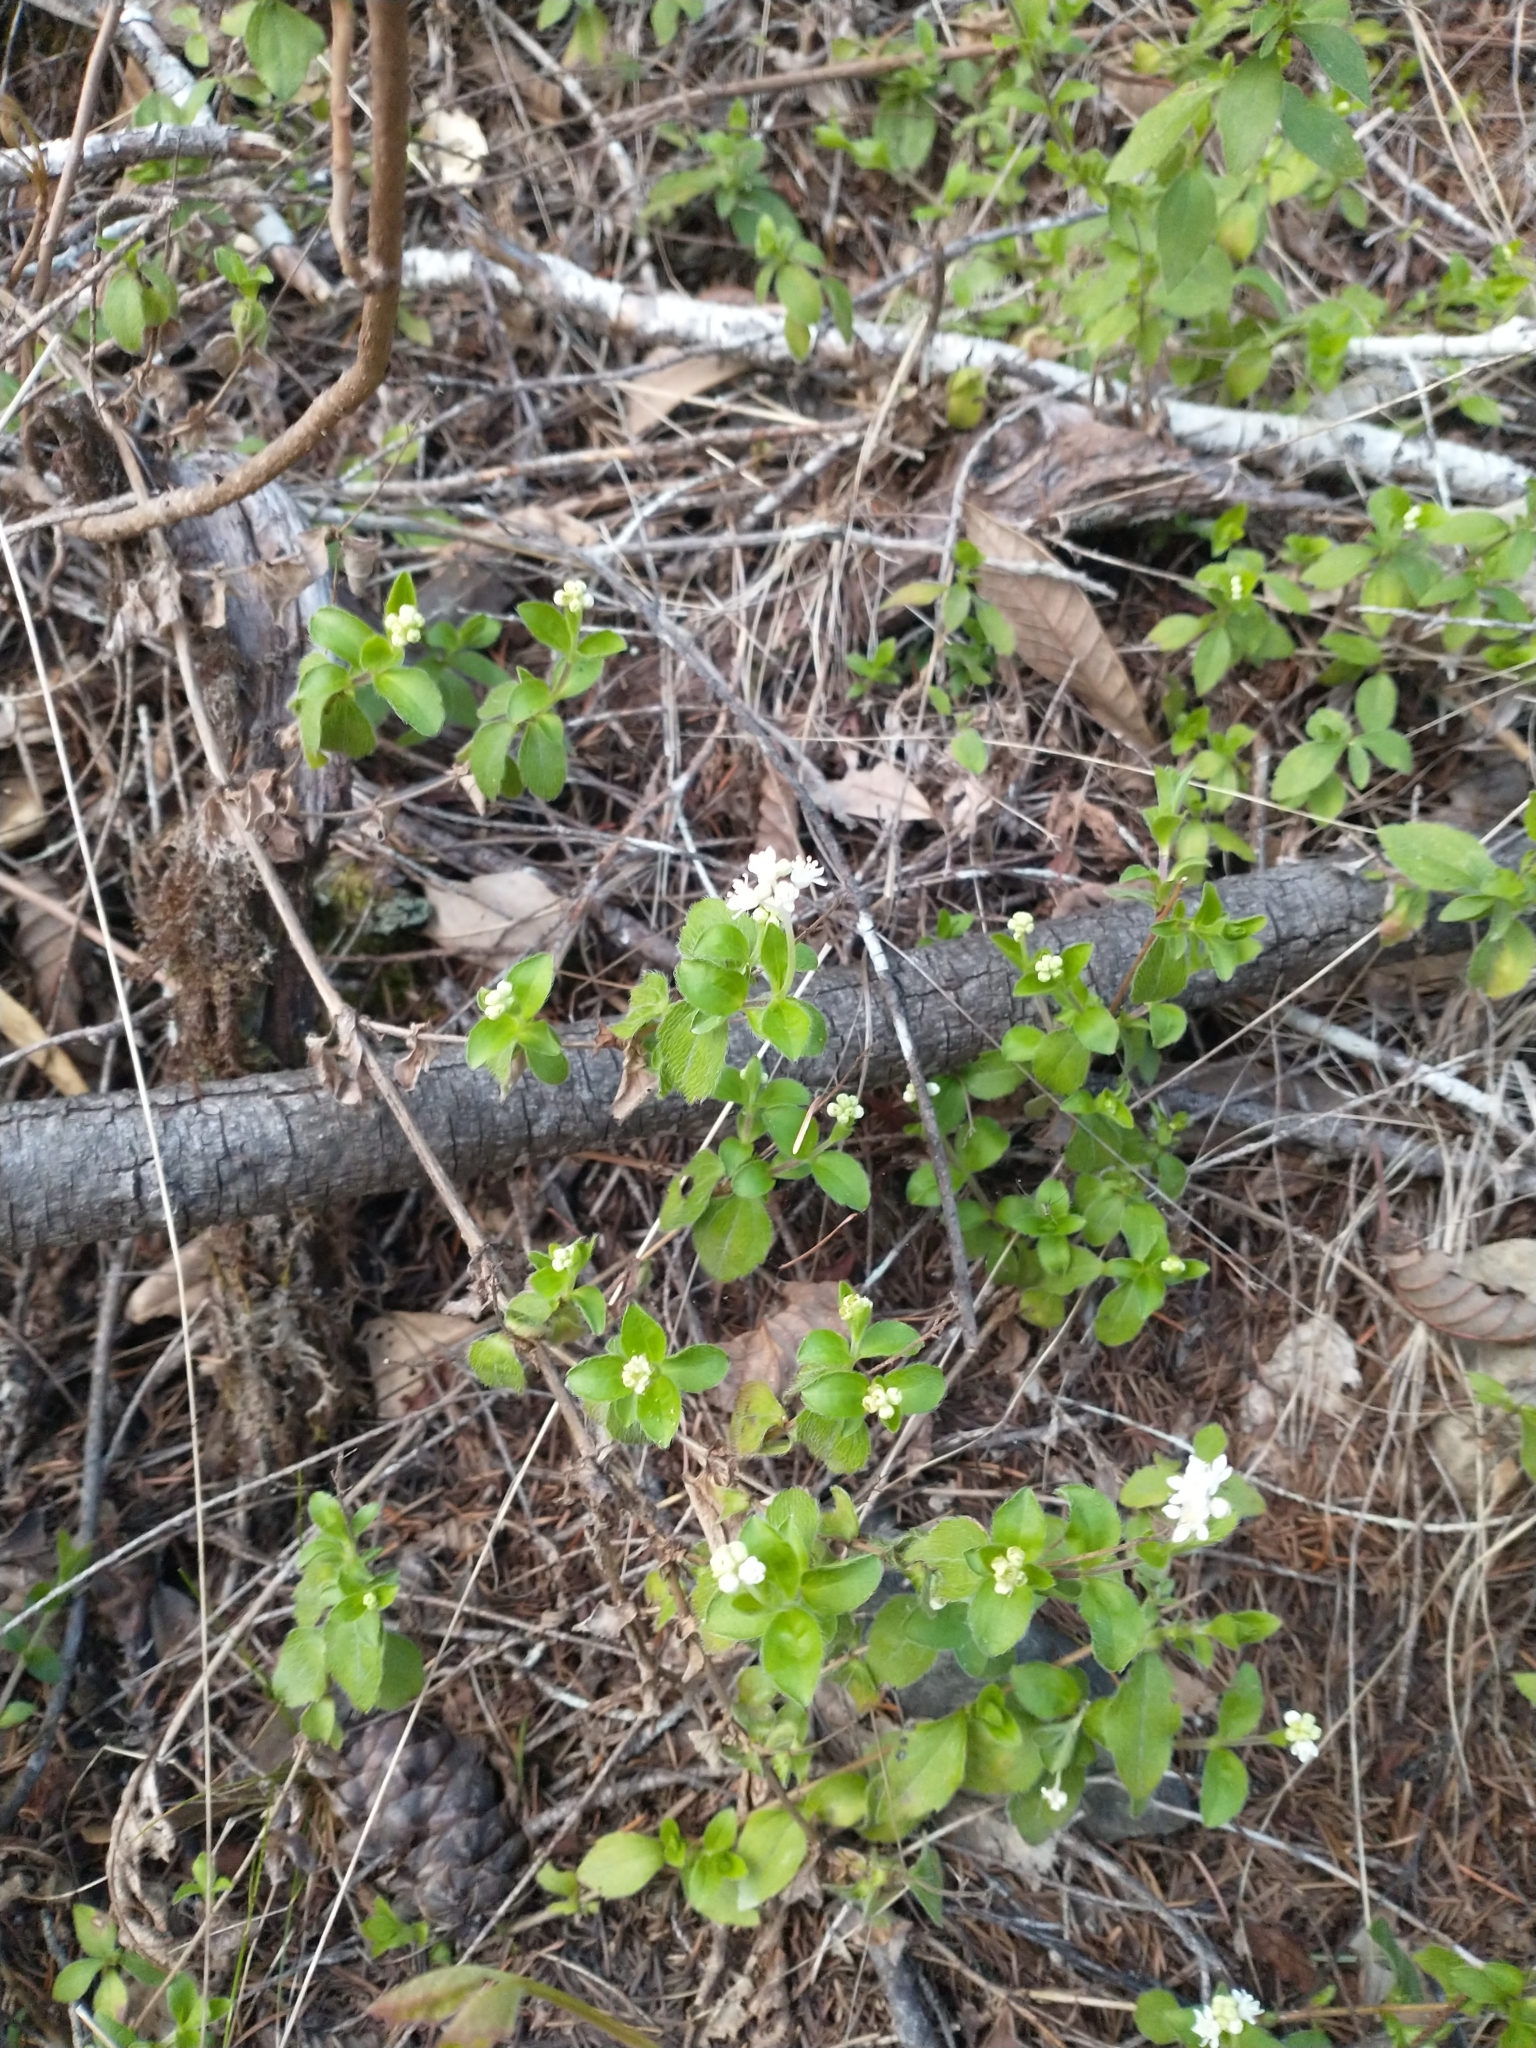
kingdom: Plantae
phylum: Tracheophyta
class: Magnoliopsida
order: Cornales
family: Hydrangeaceae
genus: Whipplea
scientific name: Whipplea modesta
